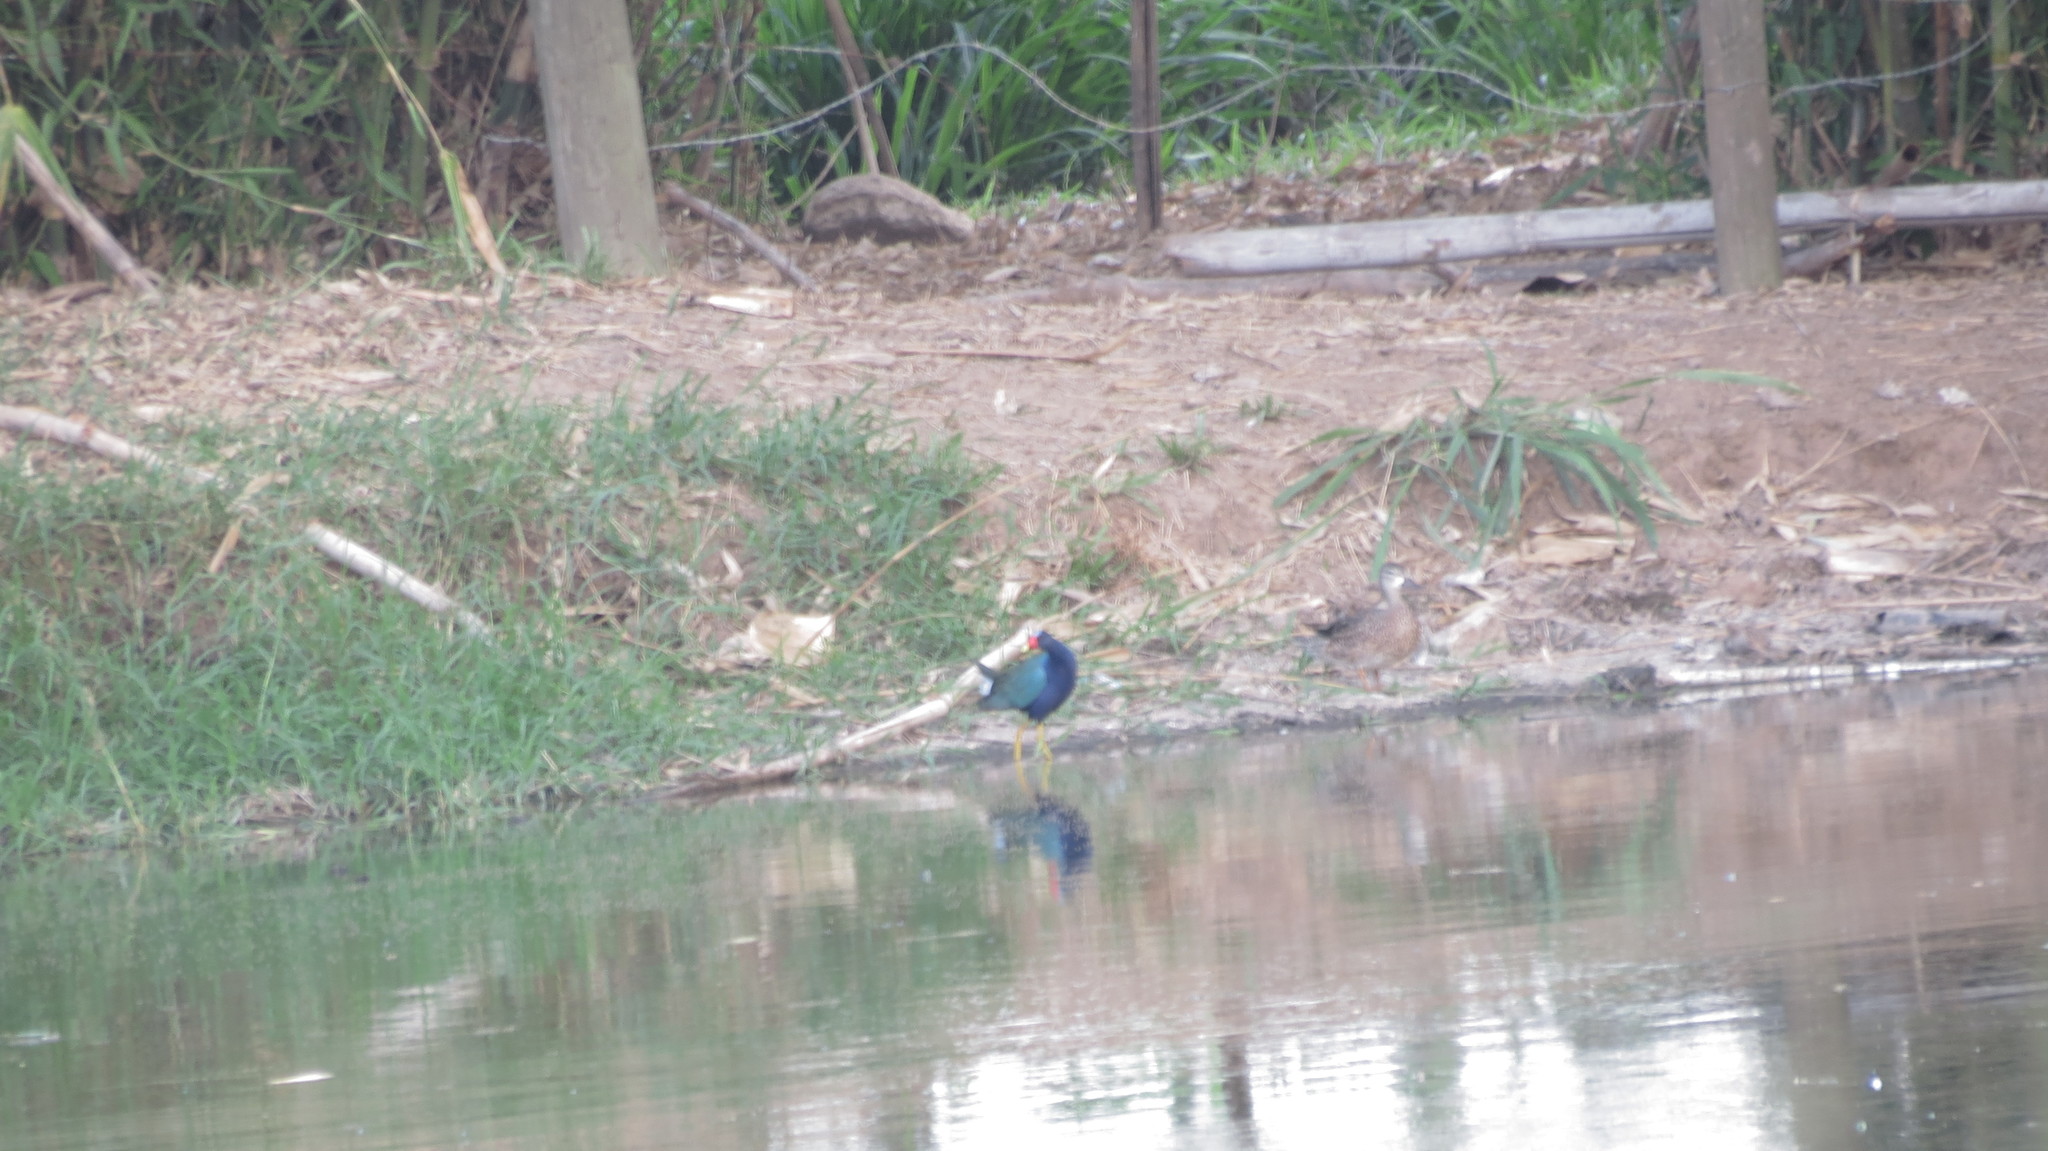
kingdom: Animalia
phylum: Chordata
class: Aves
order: Gruiformes
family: Rallidae
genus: Porphyrio
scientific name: Porphyrio martinica
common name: Purple gallinule
